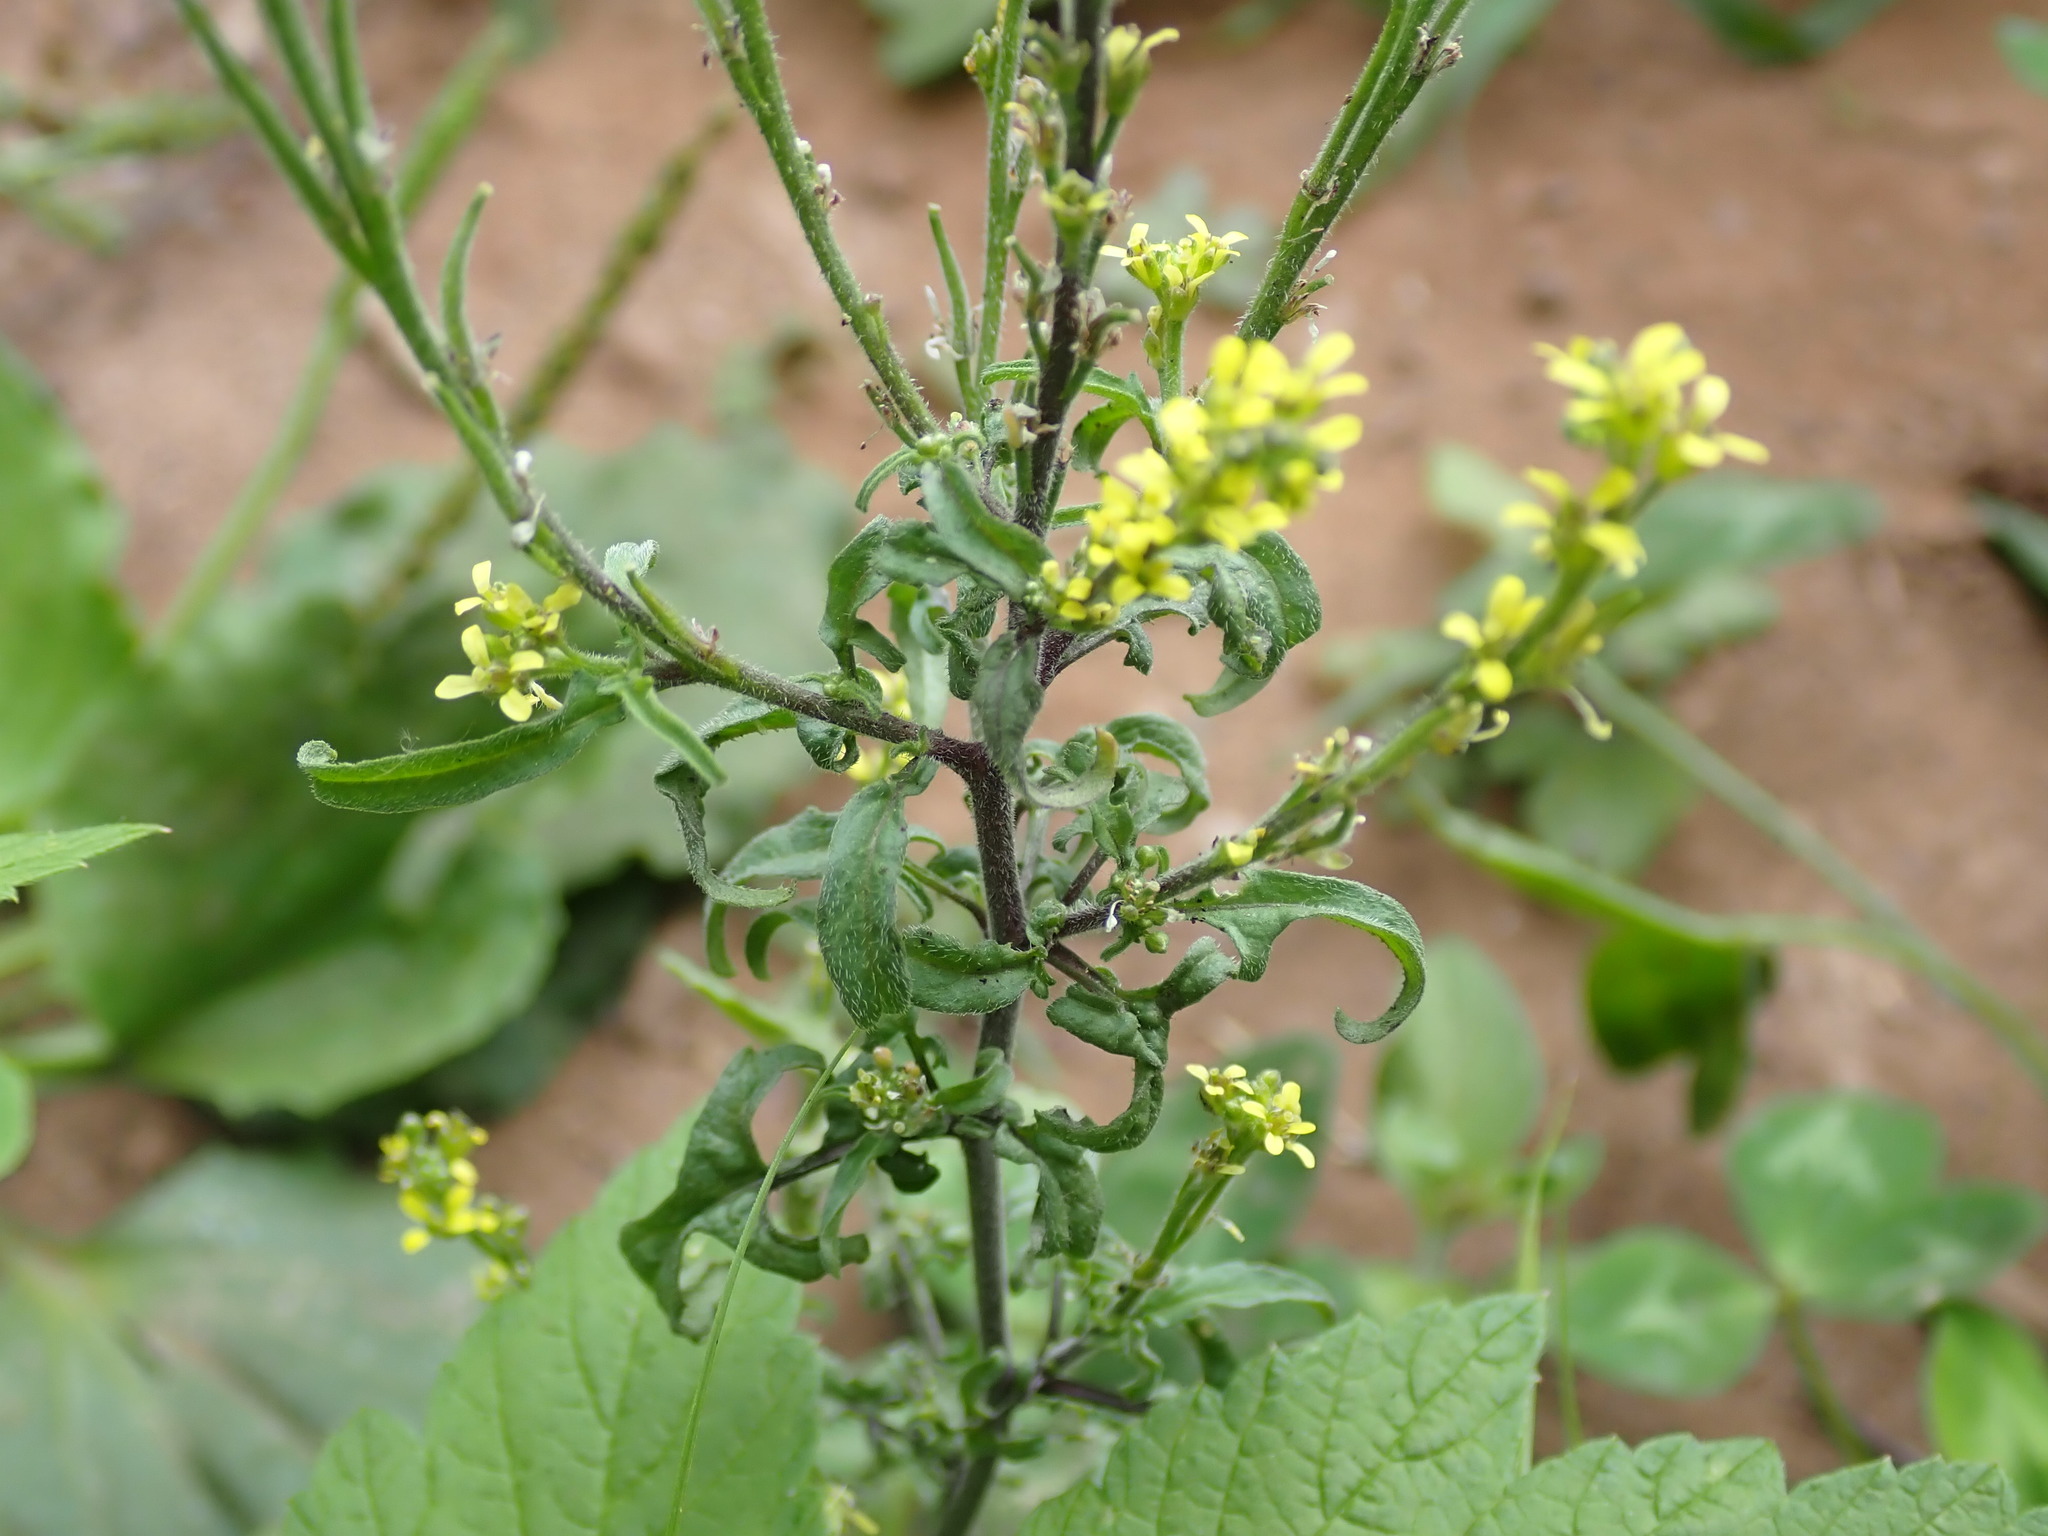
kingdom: Plantae
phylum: Tracheophyta
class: Magnoliopsida
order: Brassicales
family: Brassicaceae
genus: Sisymbrium
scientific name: Sisymbrium officinale
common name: Hedge mustard
